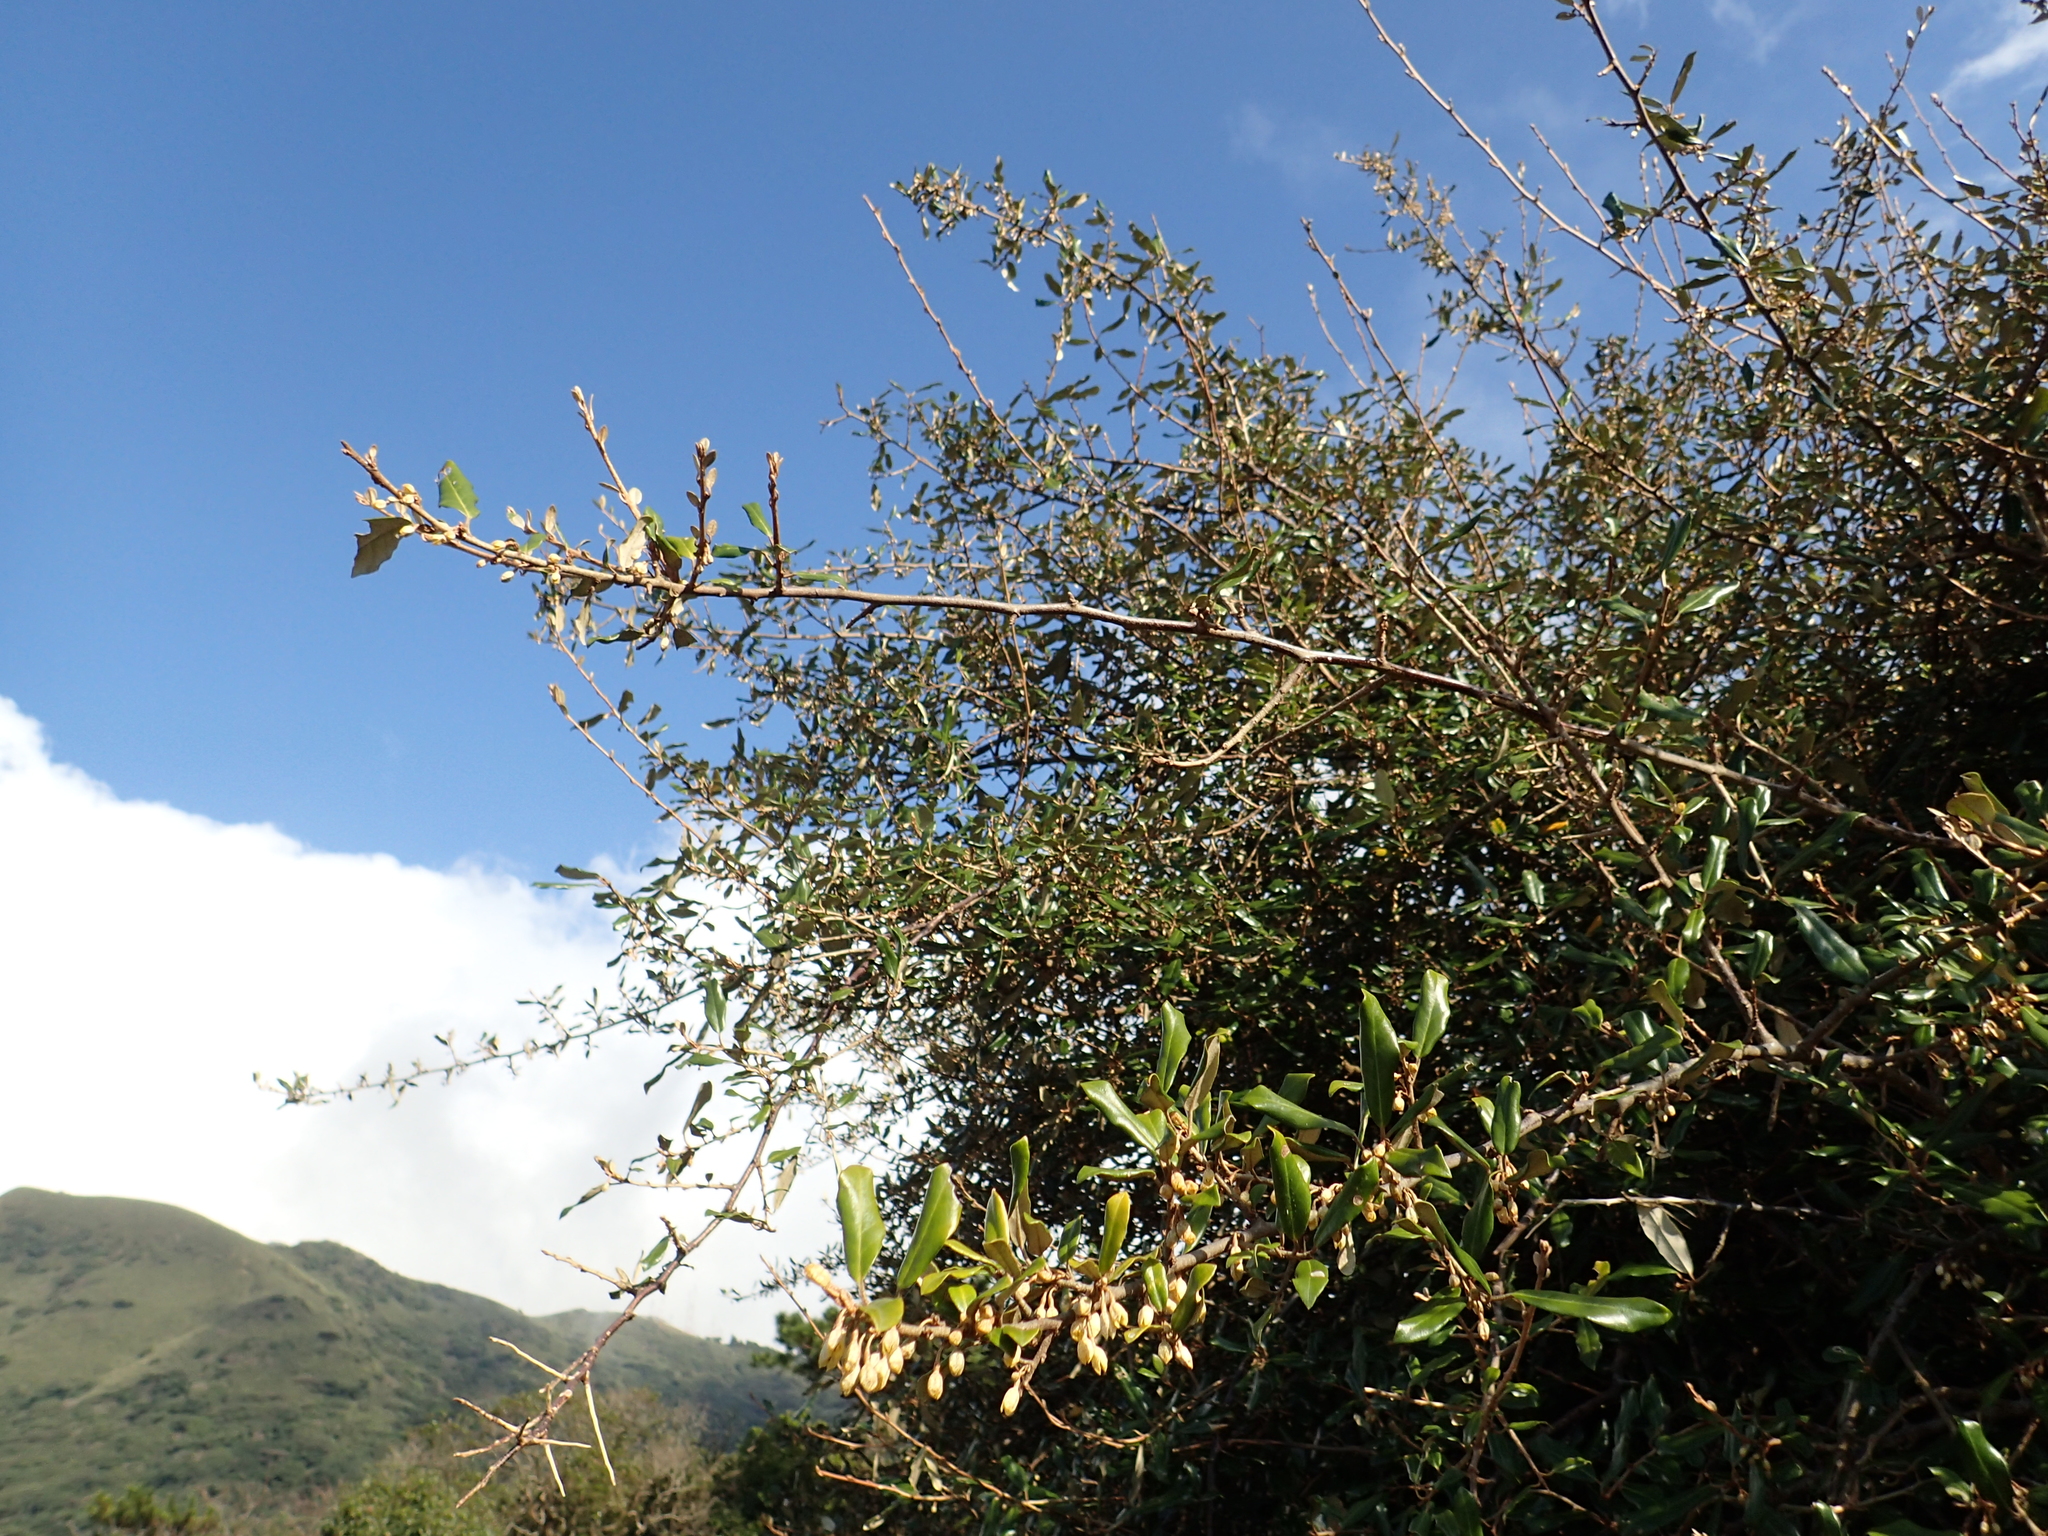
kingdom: Plantae
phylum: Tracheophyta
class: Magnoliopsida
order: Rosales
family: Elaeagnaceae
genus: Elaeagnus
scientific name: Elaeagnus formosana
